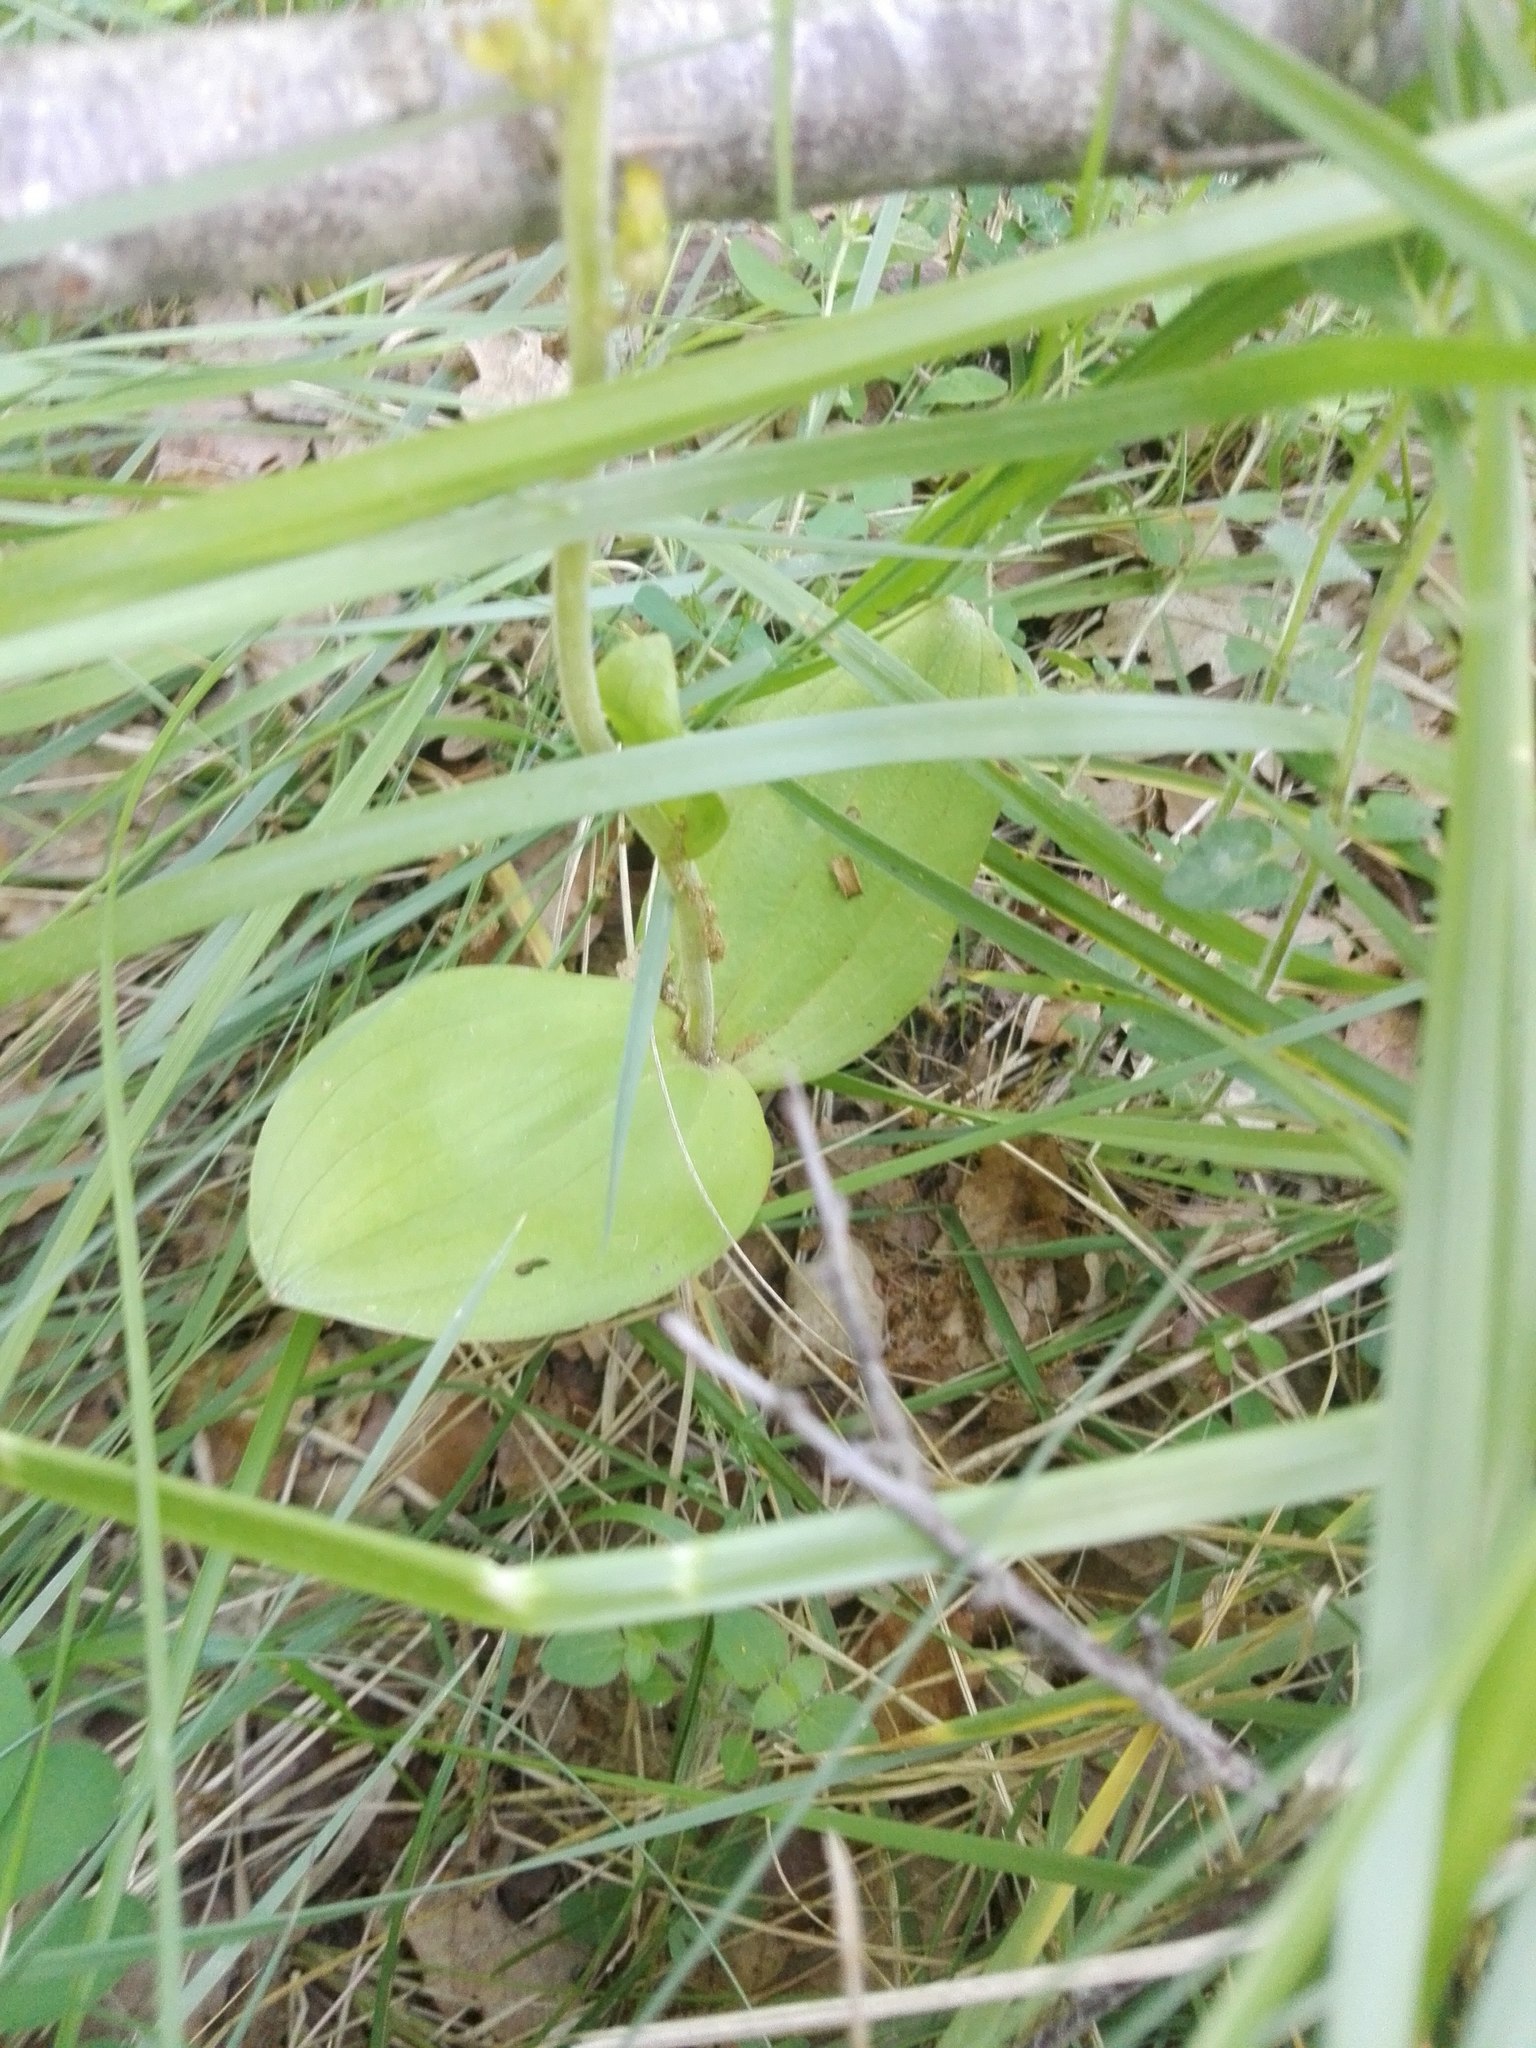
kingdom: Plantae
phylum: Tracheophyta
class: Liliopsida
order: Asparagales
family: Orchidaceae
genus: Neottia
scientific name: Neottia ovata
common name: Common twayblade
